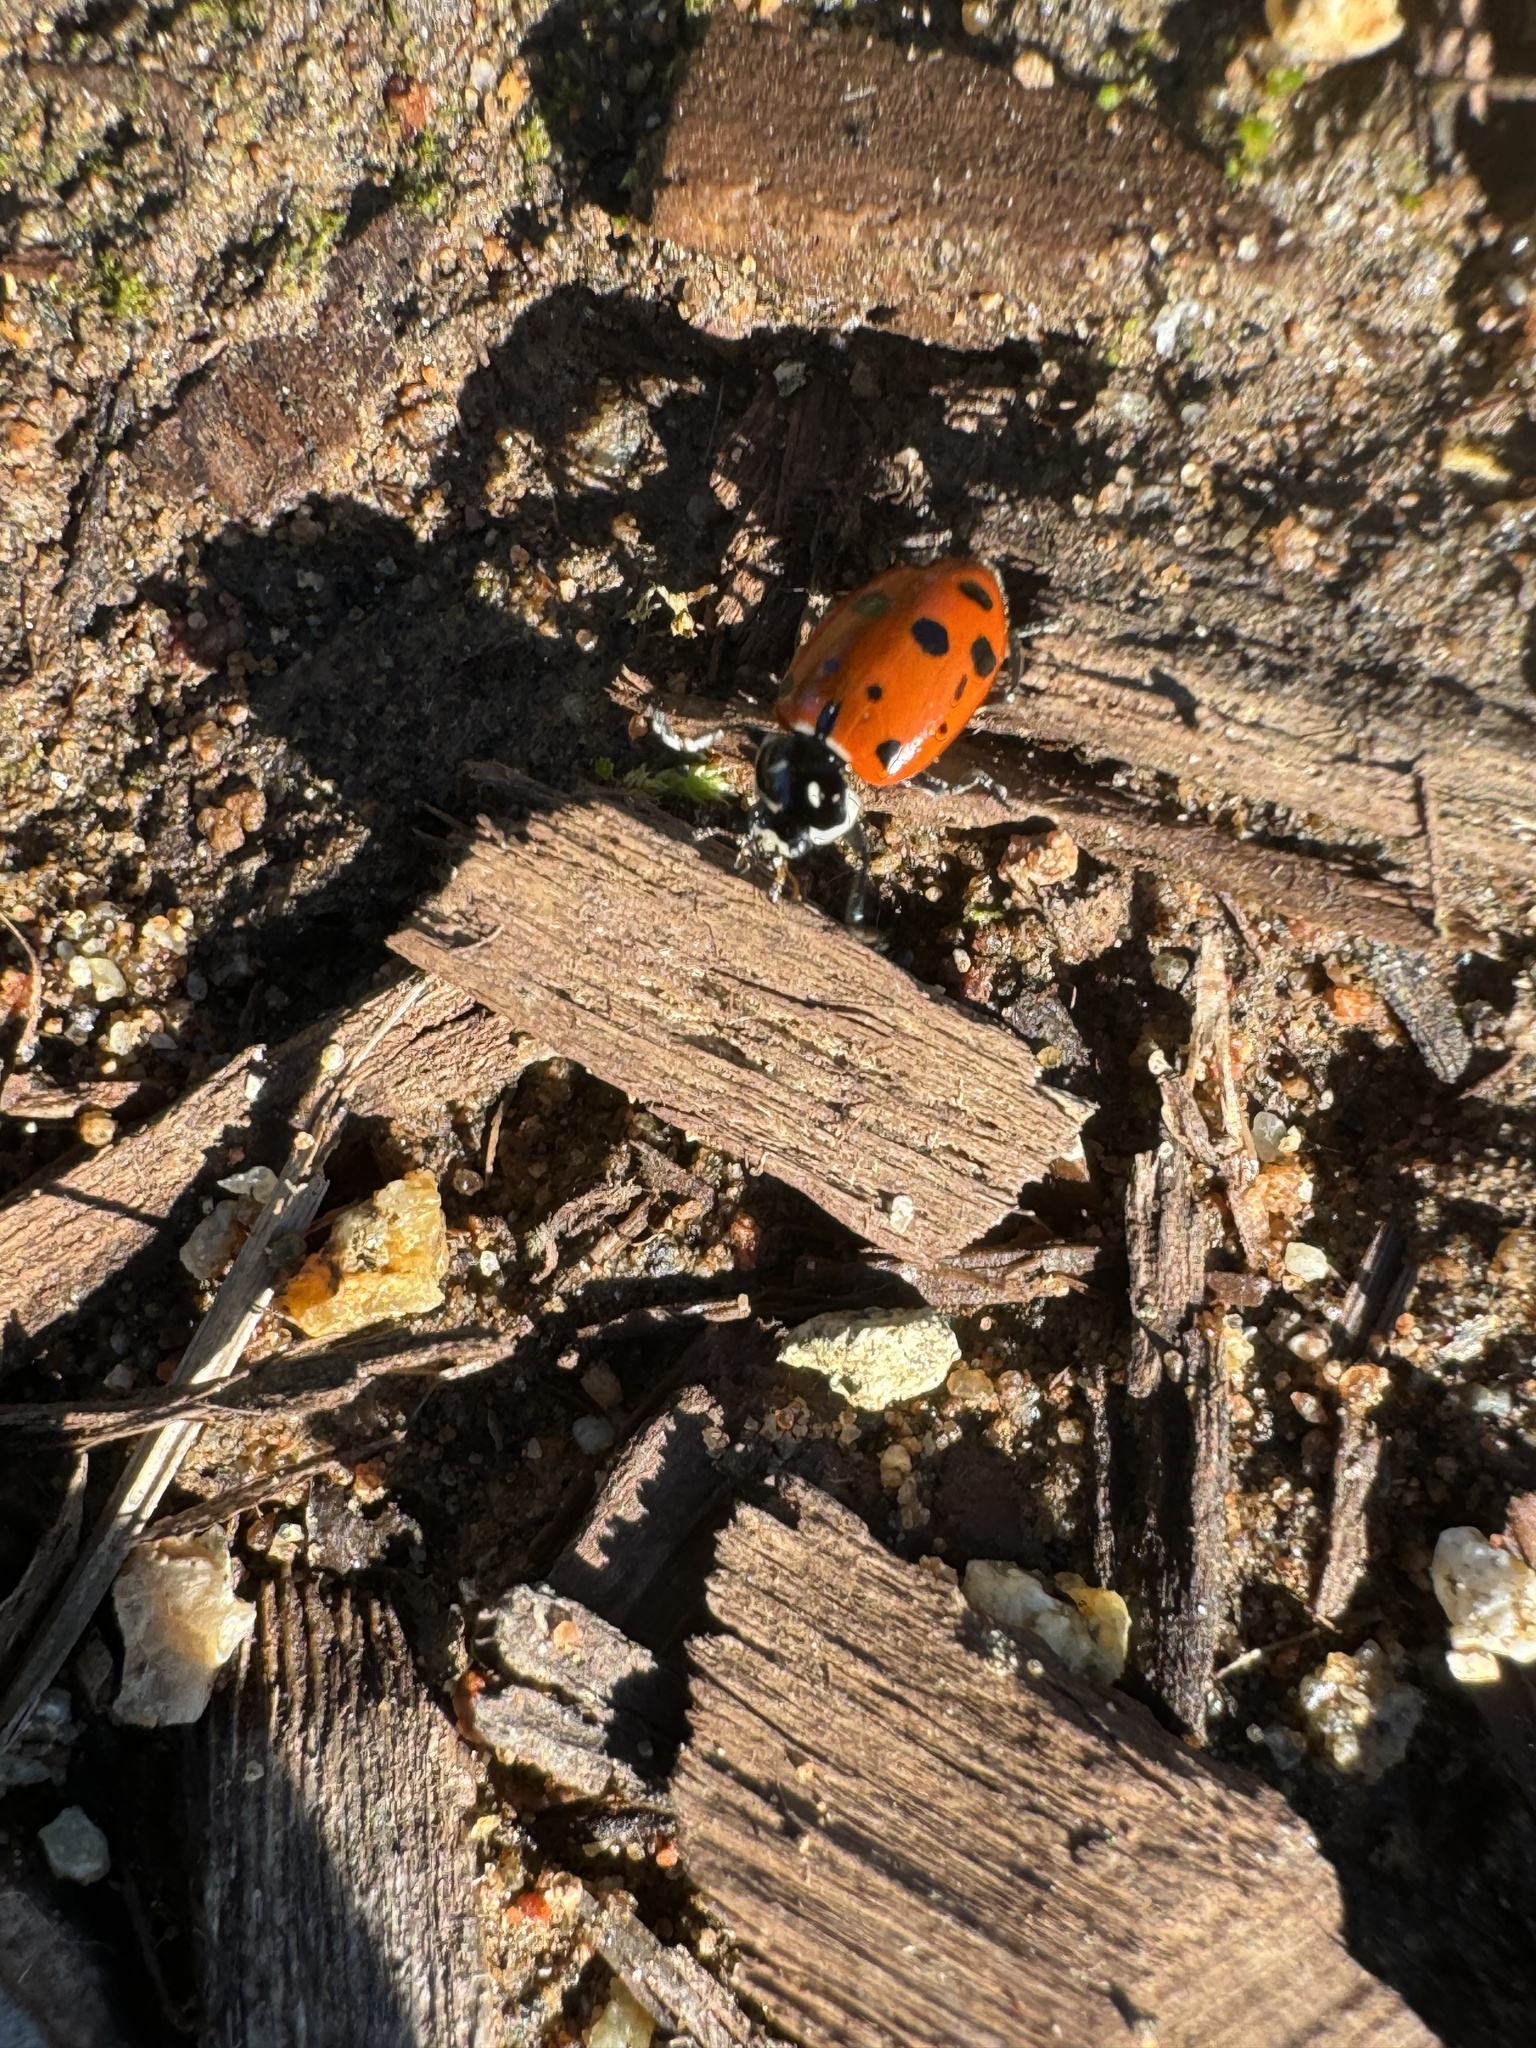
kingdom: Animalia
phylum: Arthropoda
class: Insecta
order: Coleoptera
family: Coccinellidae
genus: Hippodamia
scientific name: Hippodamia convergens
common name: Convergent lady beetle
